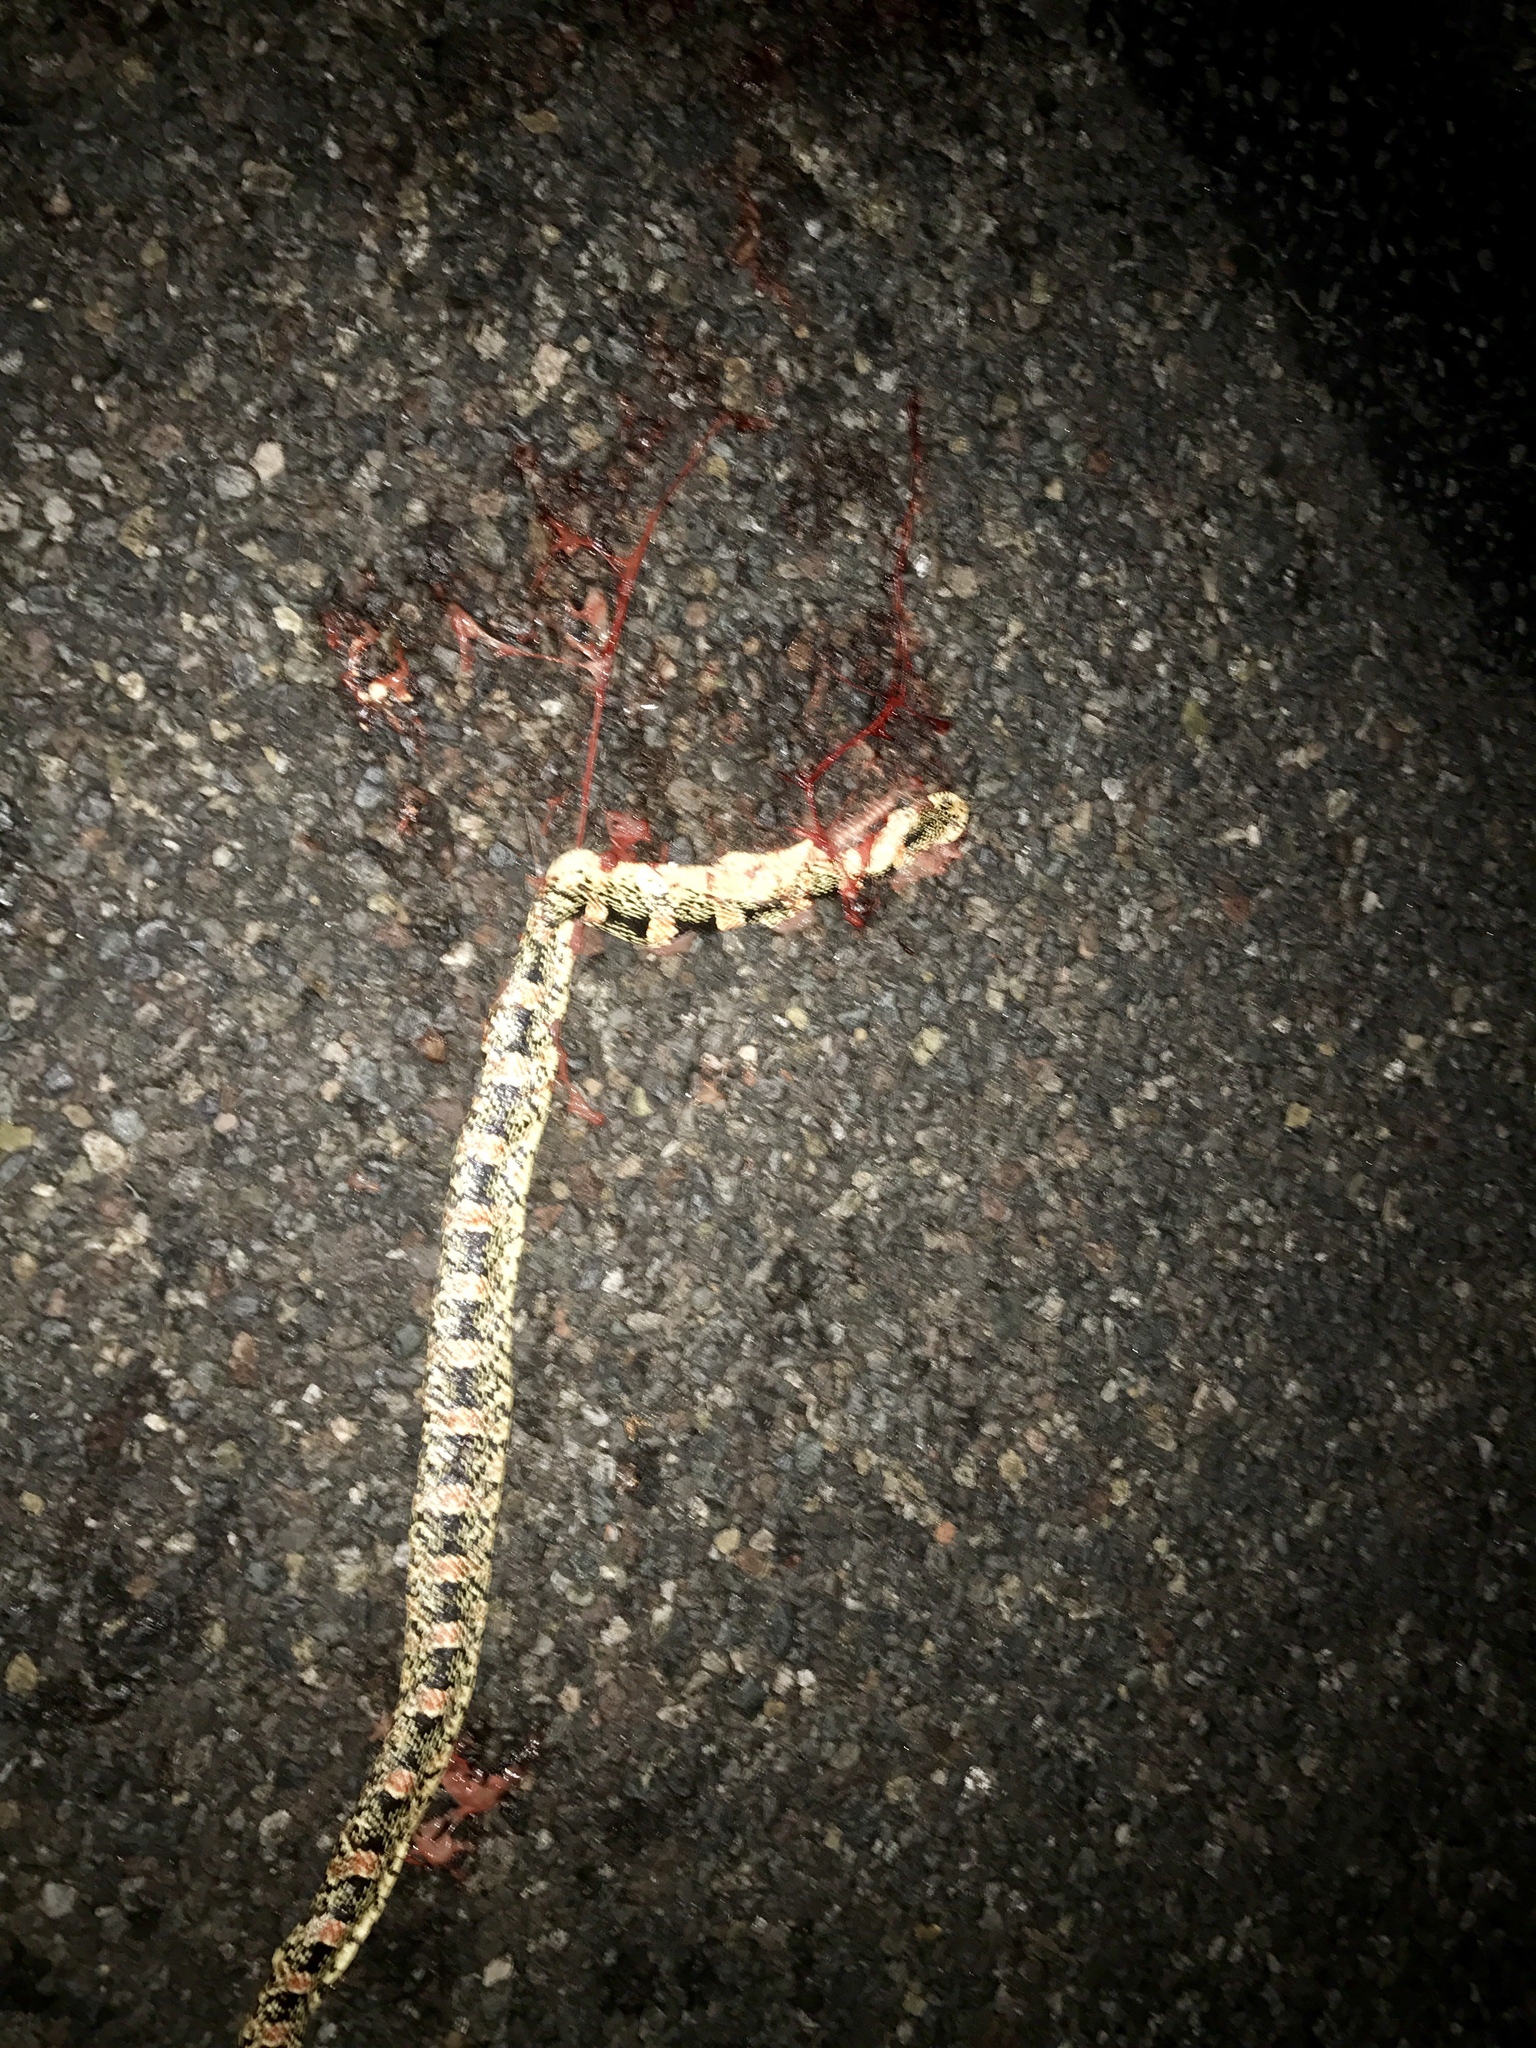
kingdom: Animalia
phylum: Chordata
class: Squamata
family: Colubridae
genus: Rhinocheilus
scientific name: Rhinocheilus lecontei
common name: Longnose snake
